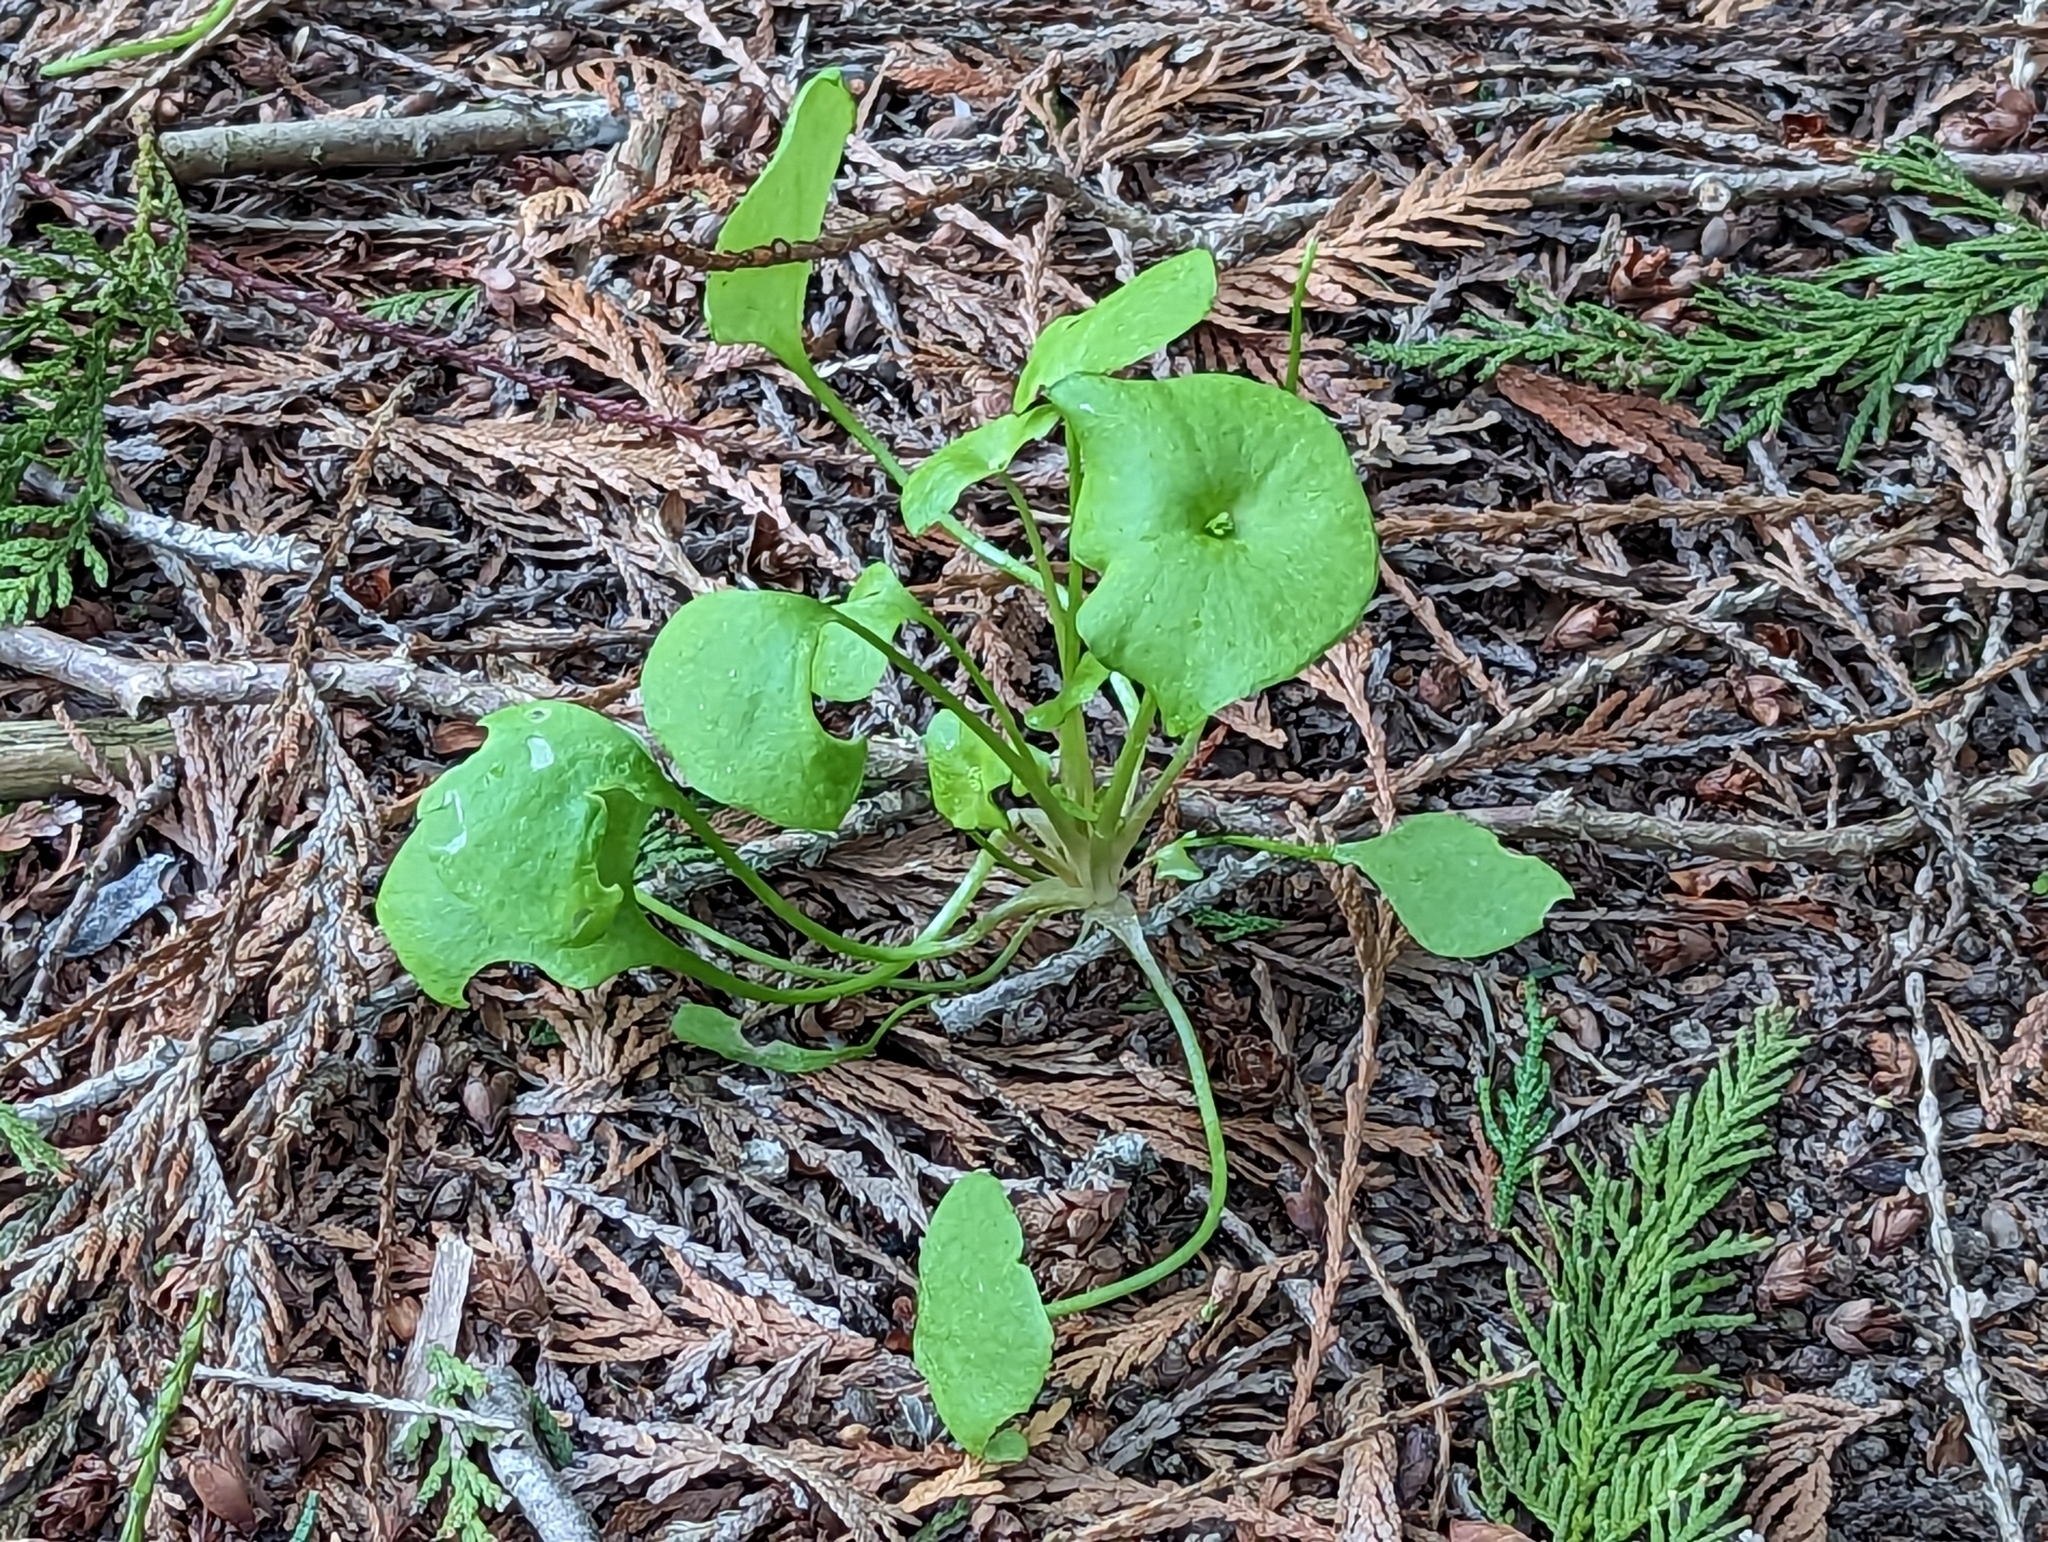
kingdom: Plantae
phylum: Tracheophyta
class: Magnoliopsida
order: Caryophyllales
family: Montiaceae
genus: Claytonia
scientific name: Claytonia perfoliata
